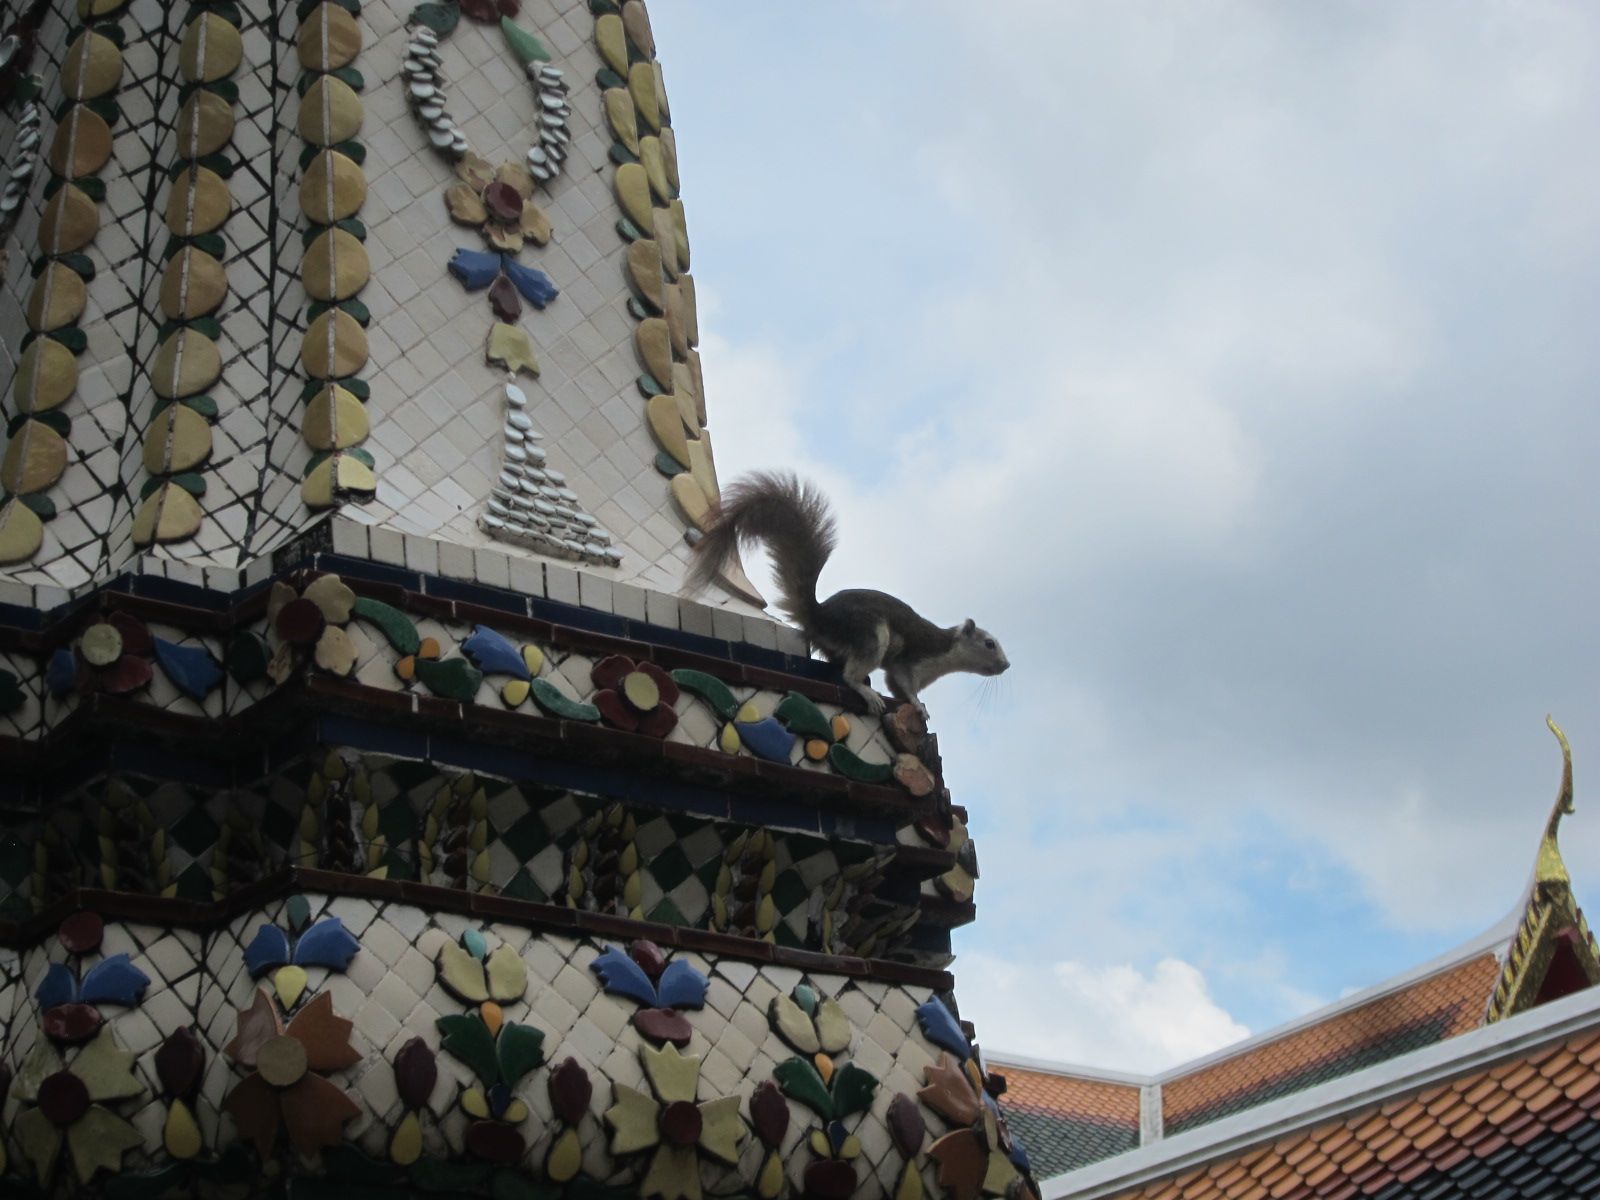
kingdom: Animalia
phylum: Chordata
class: Mammalia
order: Rodentia
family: Sciuridae
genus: Callosciurus
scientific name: Callosciurus finlaysonii
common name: Finlayson's squirrel
